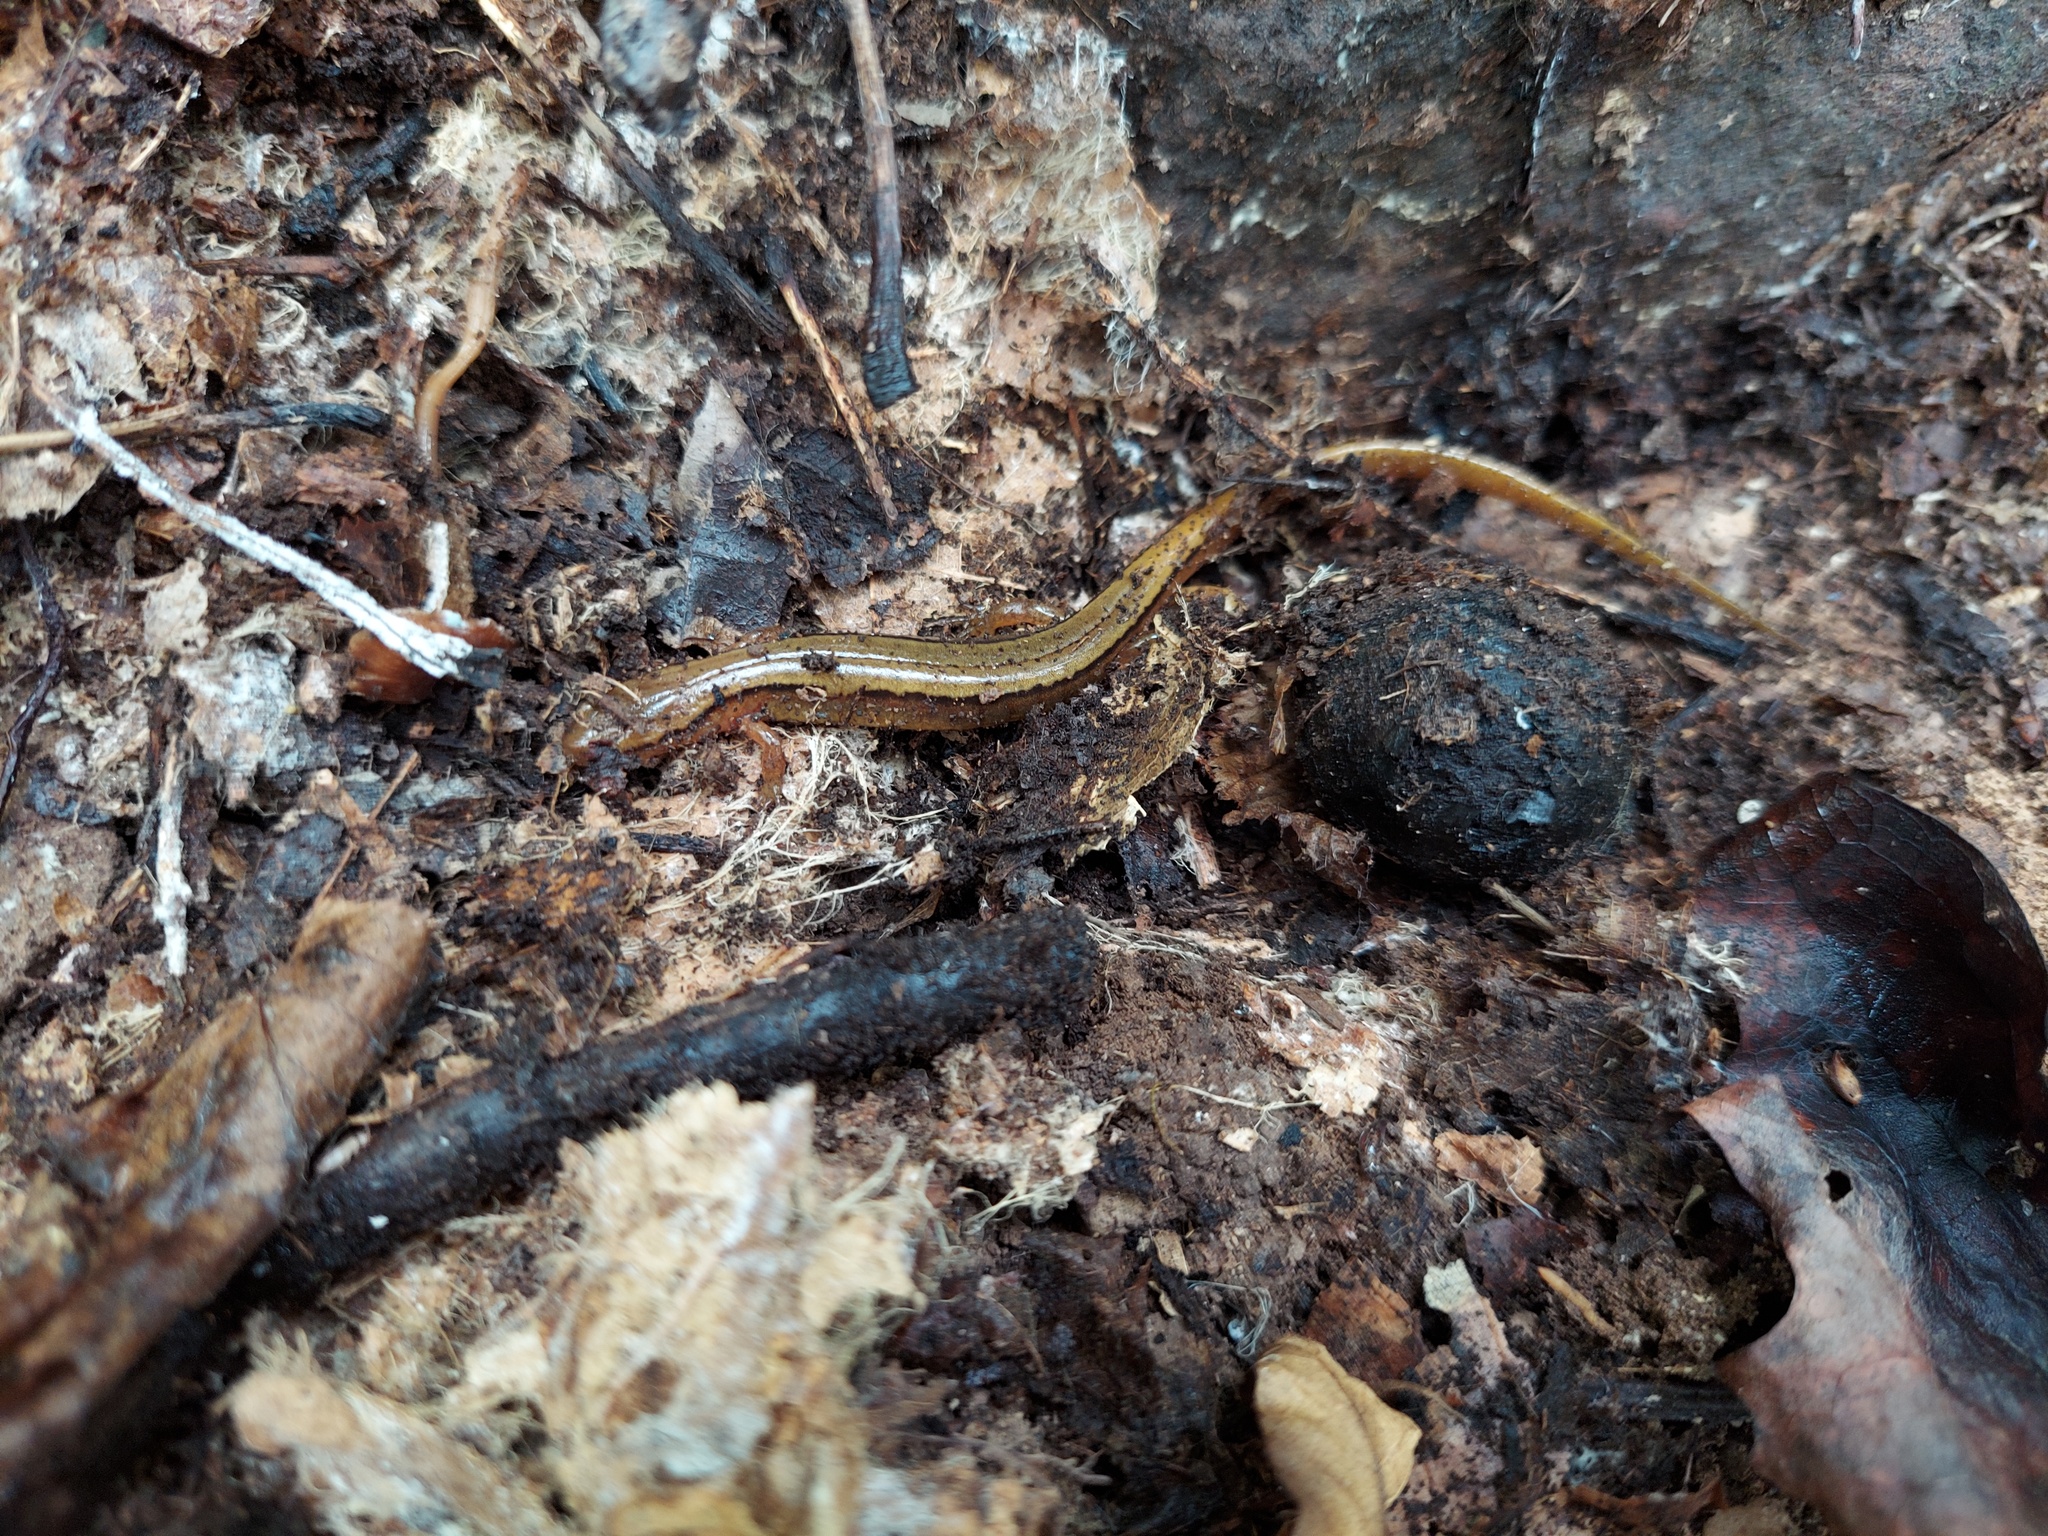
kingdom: Animalia
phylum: Chordata
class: Amphibia
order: Caudata
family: Plethodontidae
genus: Eurycea
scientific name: Eurycea bislineata
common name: Northern two-lined salamander
